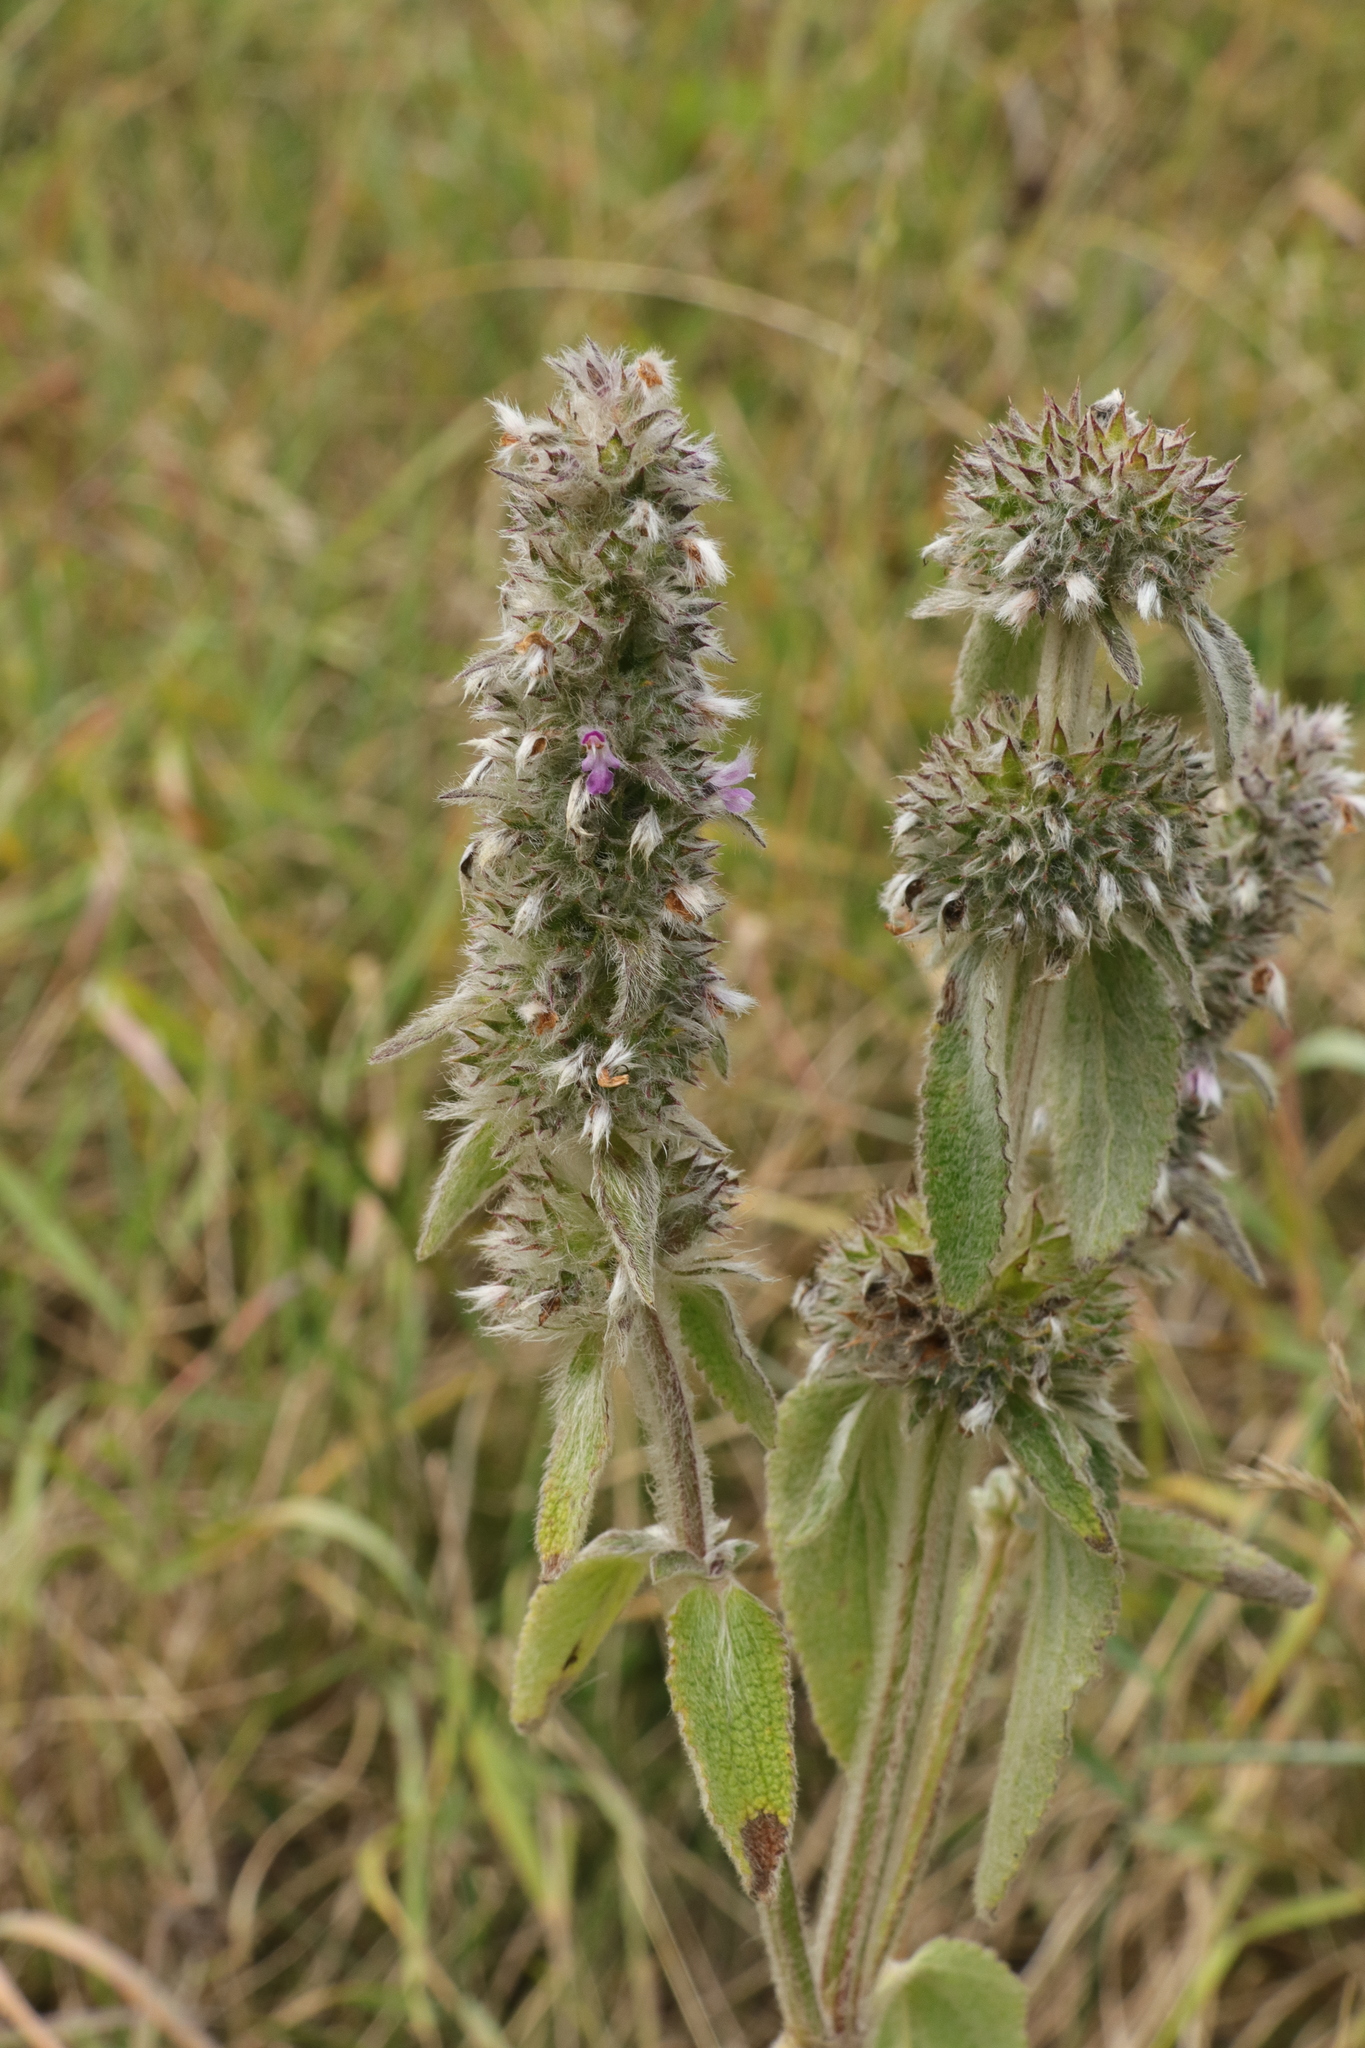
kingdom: Plantae
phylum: Tracheophyta
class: Magnoliopsida
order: Lamiales
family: Lamiaceae
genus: Stachys
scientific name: Stachys germanica
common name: Downy woundwort
